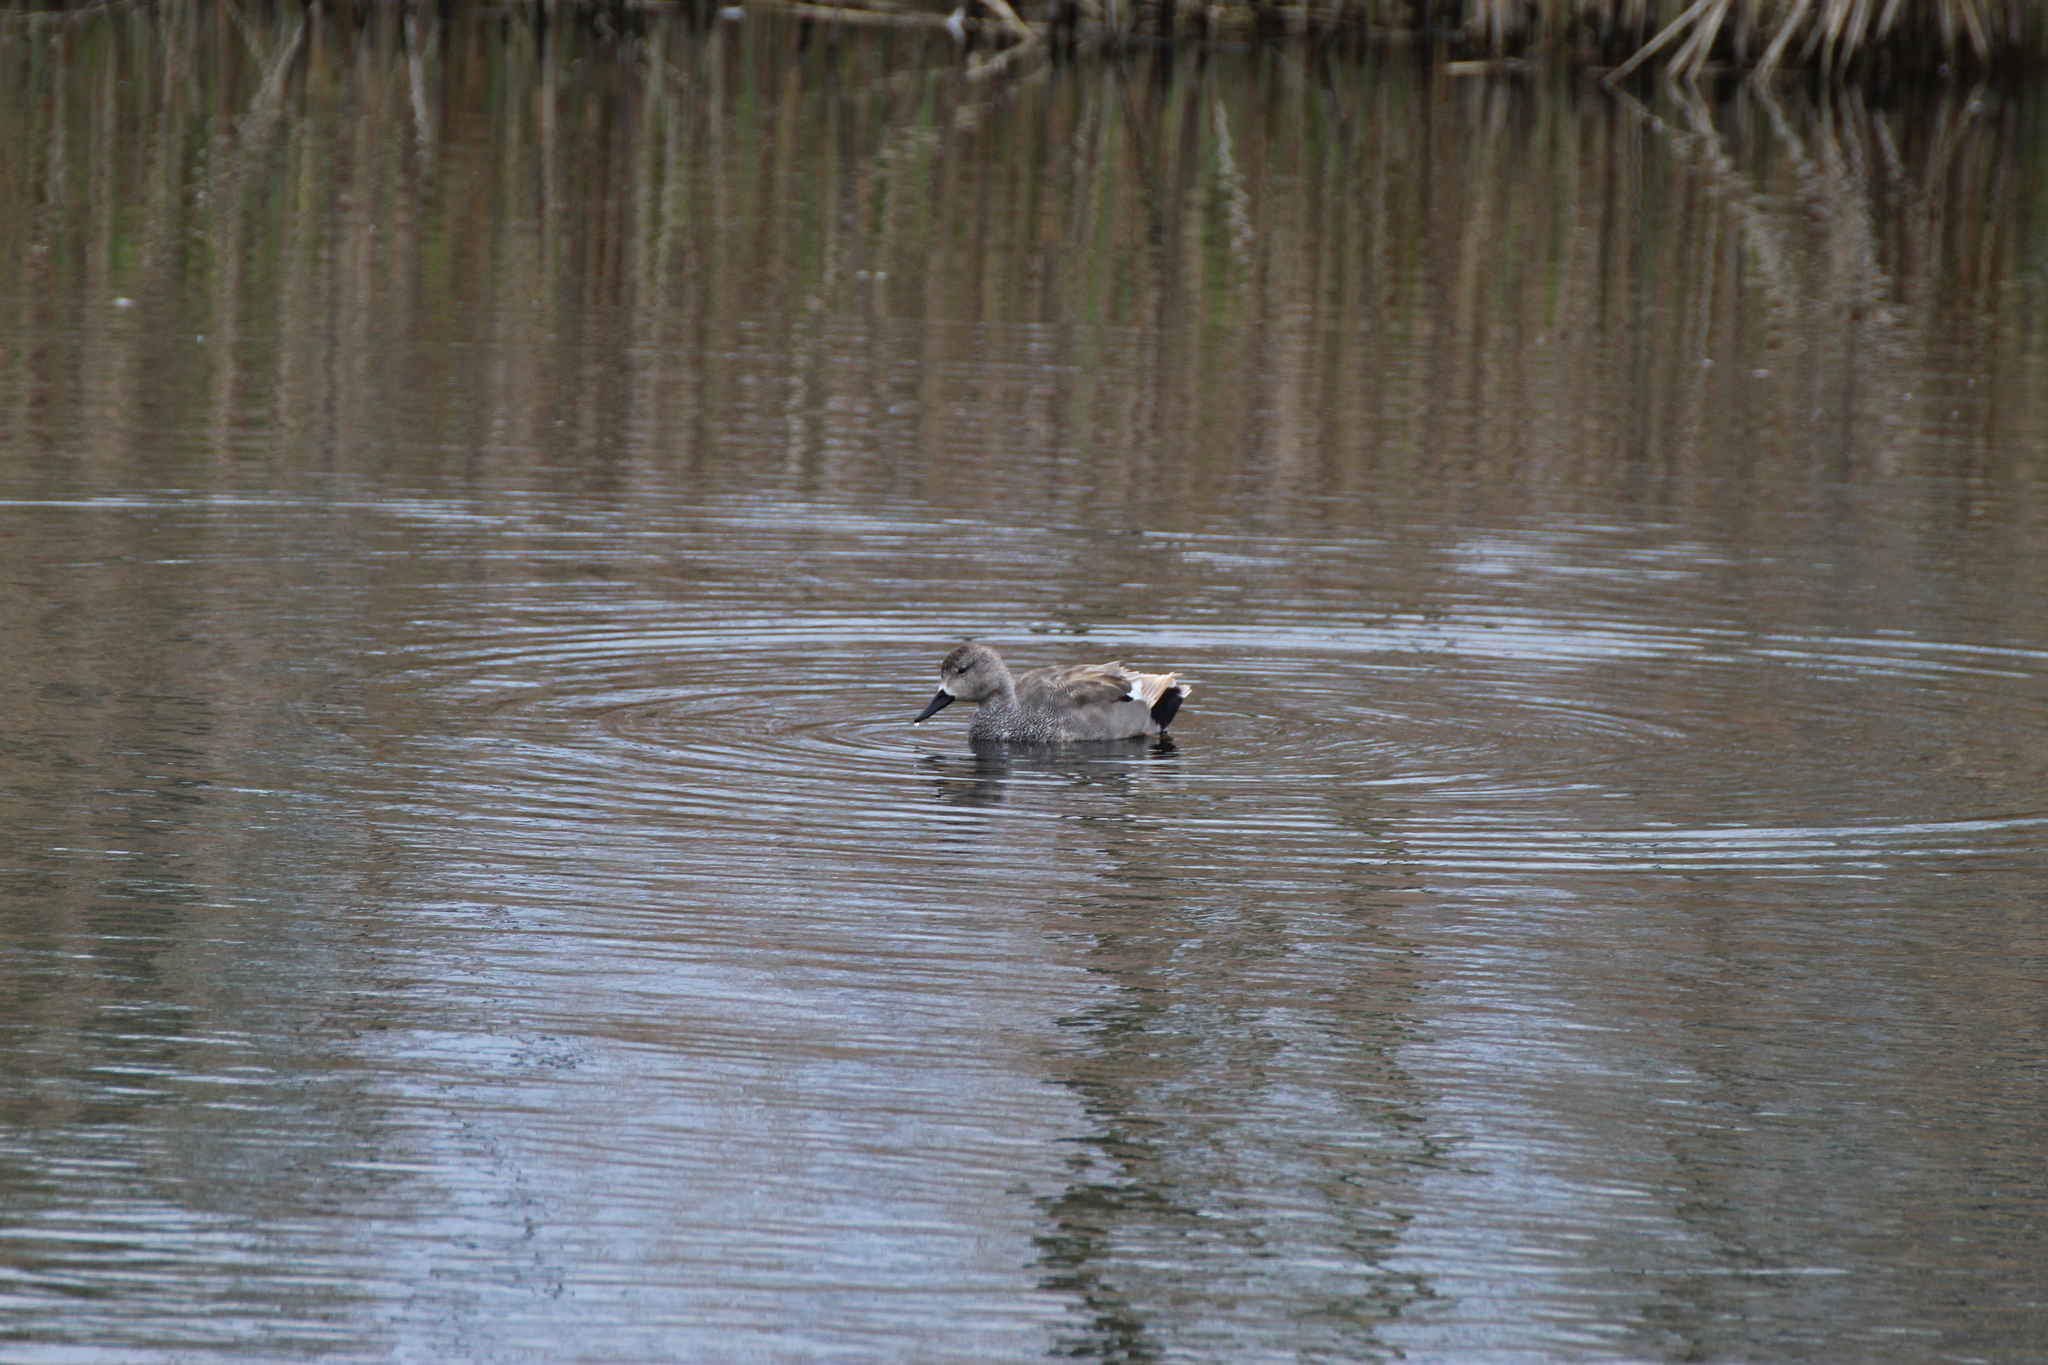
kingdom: Animalia
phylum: Chordata
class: Aves
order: Anseriformes
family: Anatidae
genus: Mareca
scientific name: Mareca strepera
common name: Gadwall
